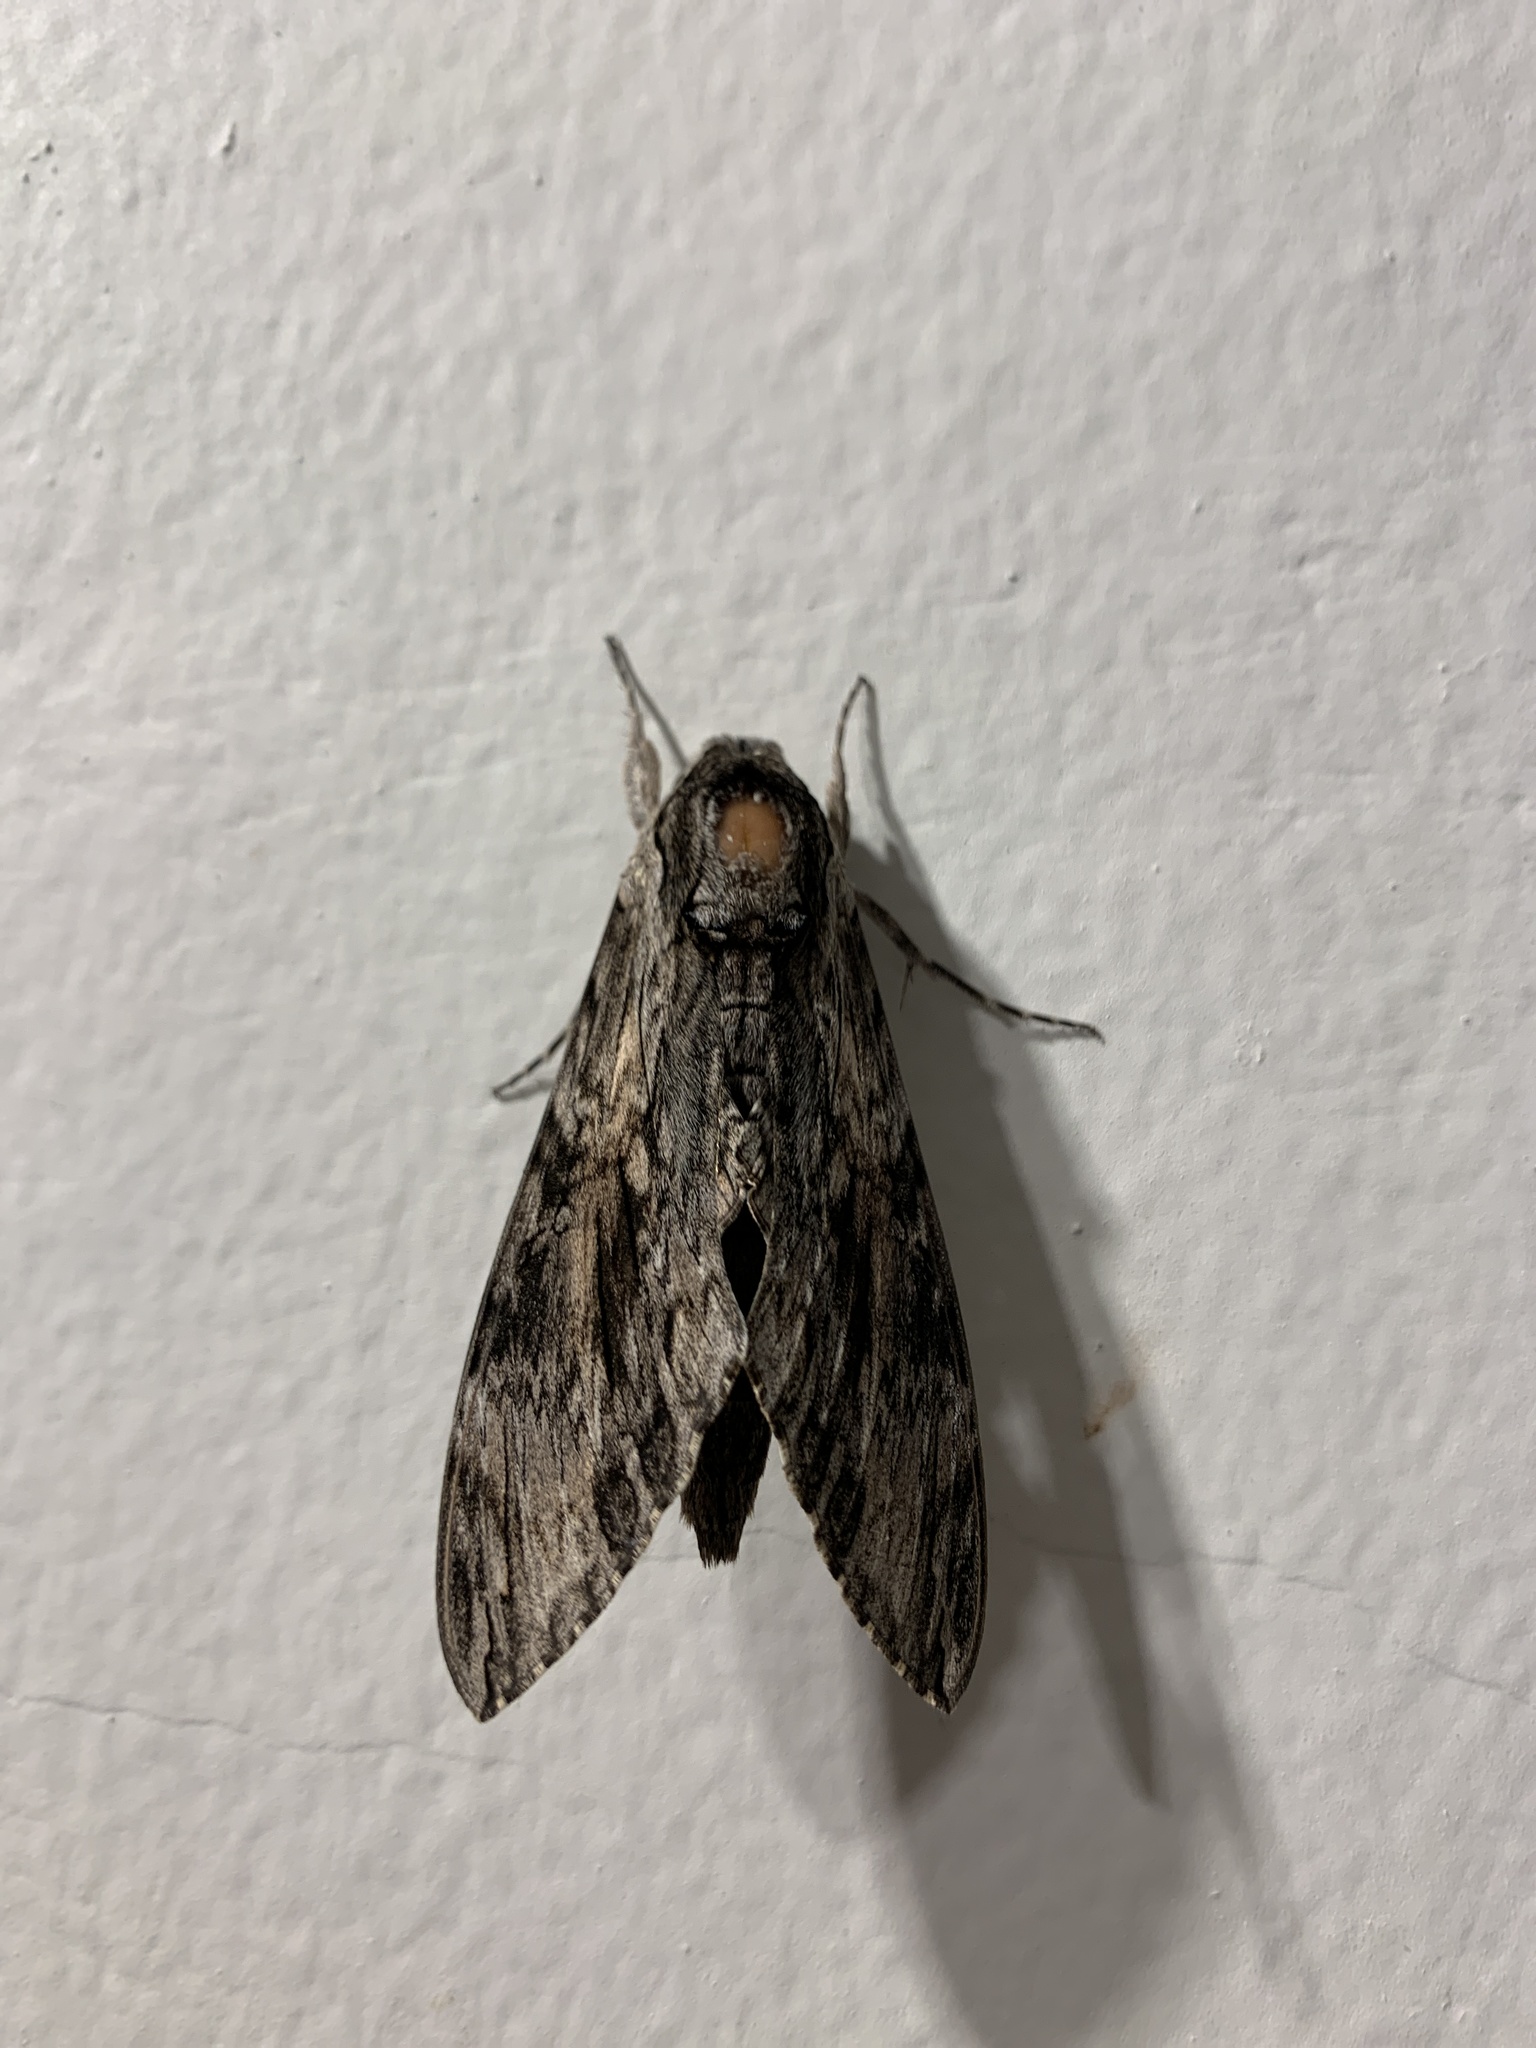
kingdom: Animalia
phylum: Arthropoda
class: Insecta
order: Lepidoptera
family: Sphingidae
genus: Agrius
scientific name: Agrius convolvuli
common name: Convolvulus hawkmoth
